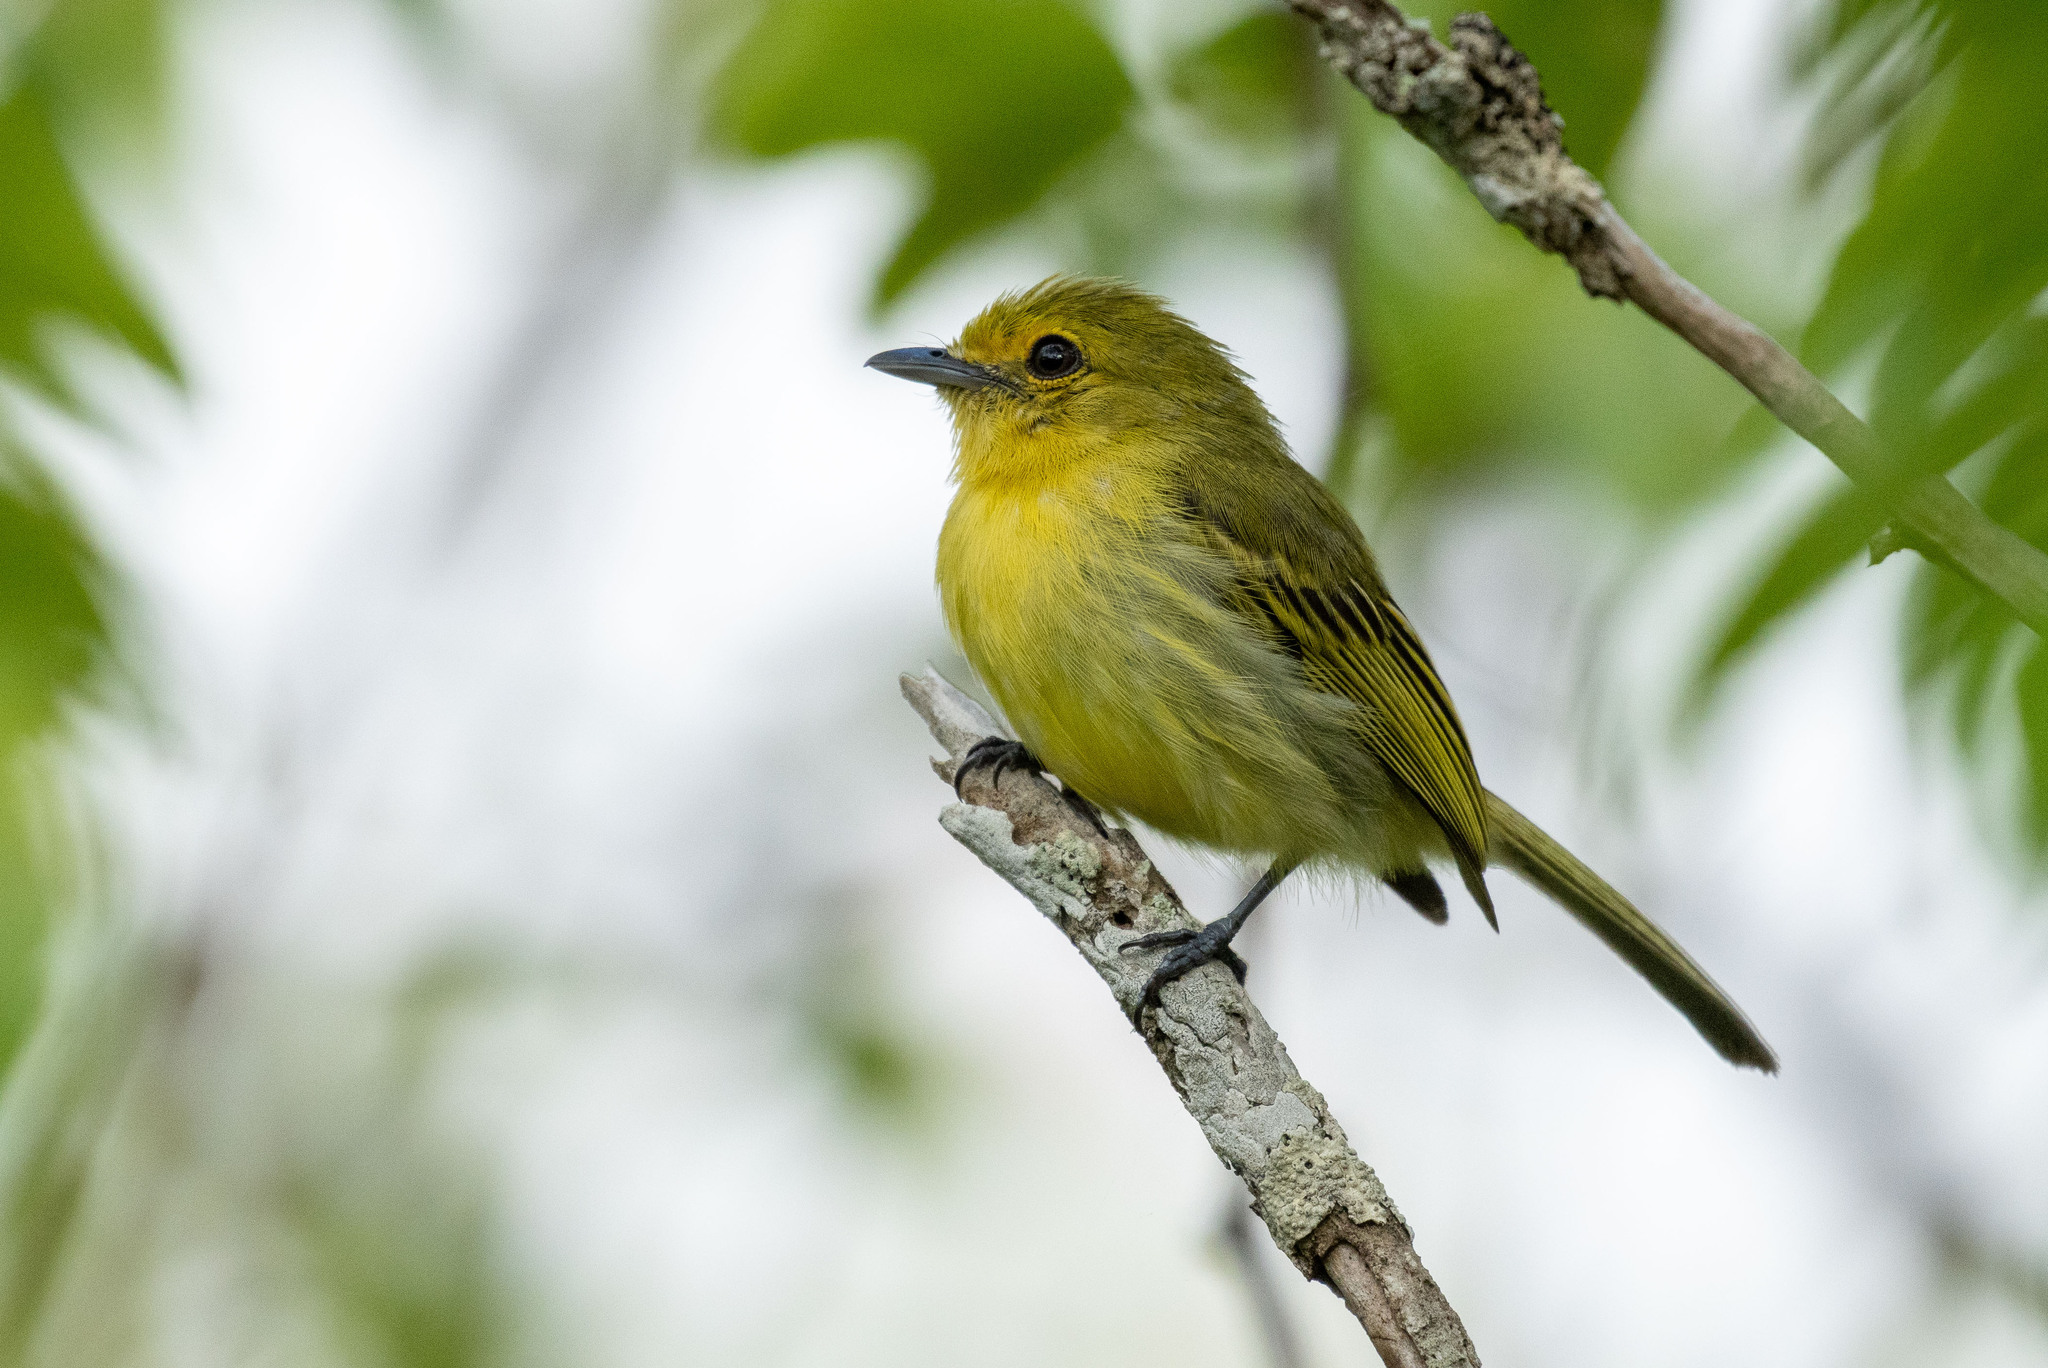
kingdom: Animalia
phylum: Chordata
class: Aves
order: Passeriformes
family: Tyrannidae
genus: Tolmomyias
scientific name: Tolmomyias flaviventris
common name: Ochre-lored flatbill
